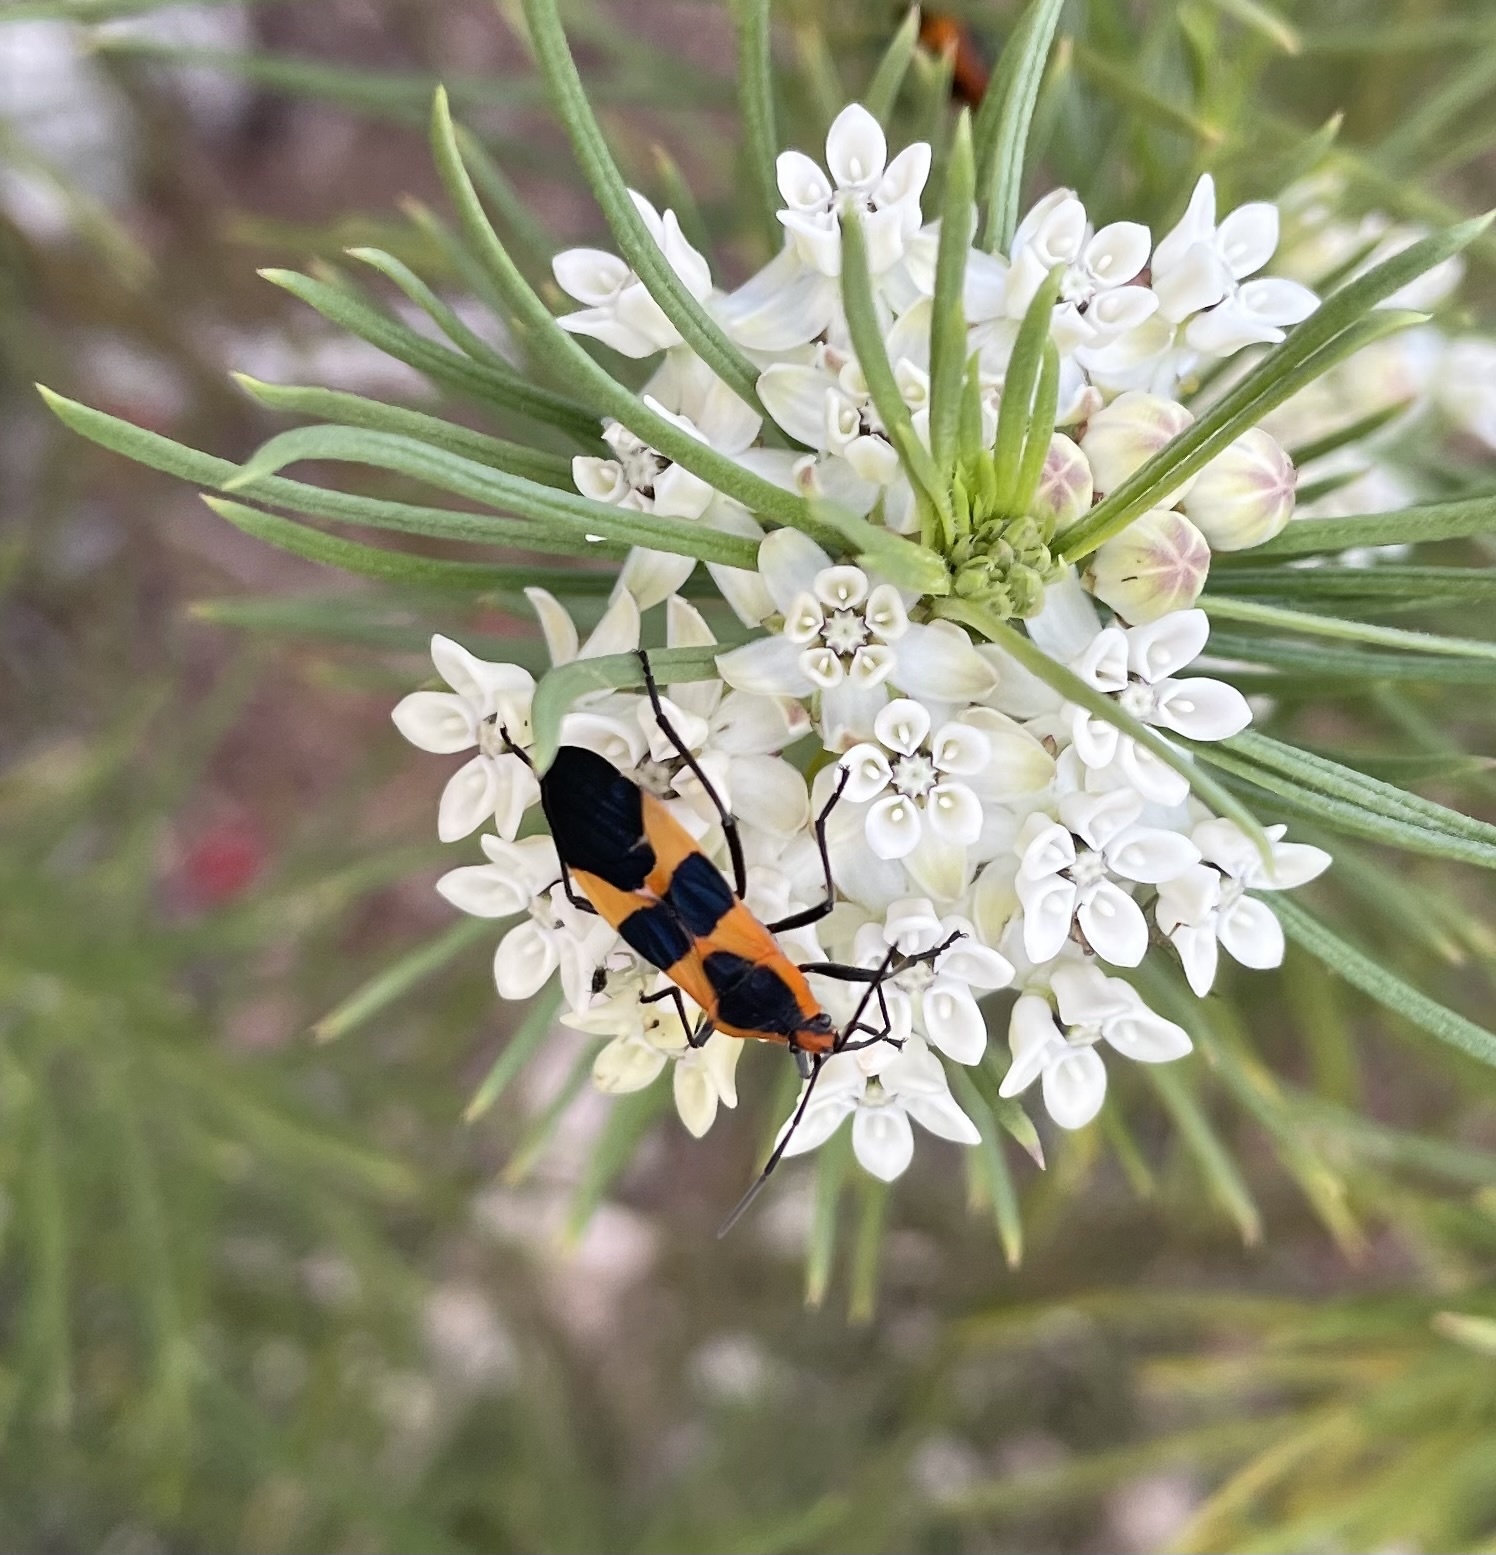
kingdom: Animalia
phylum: Arthropoda
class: Insecta
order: Hemiptera
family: Lygaeidae
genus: Oncopeltus
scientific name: Oncopeltus fasciatus
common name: Large milkweed bug
